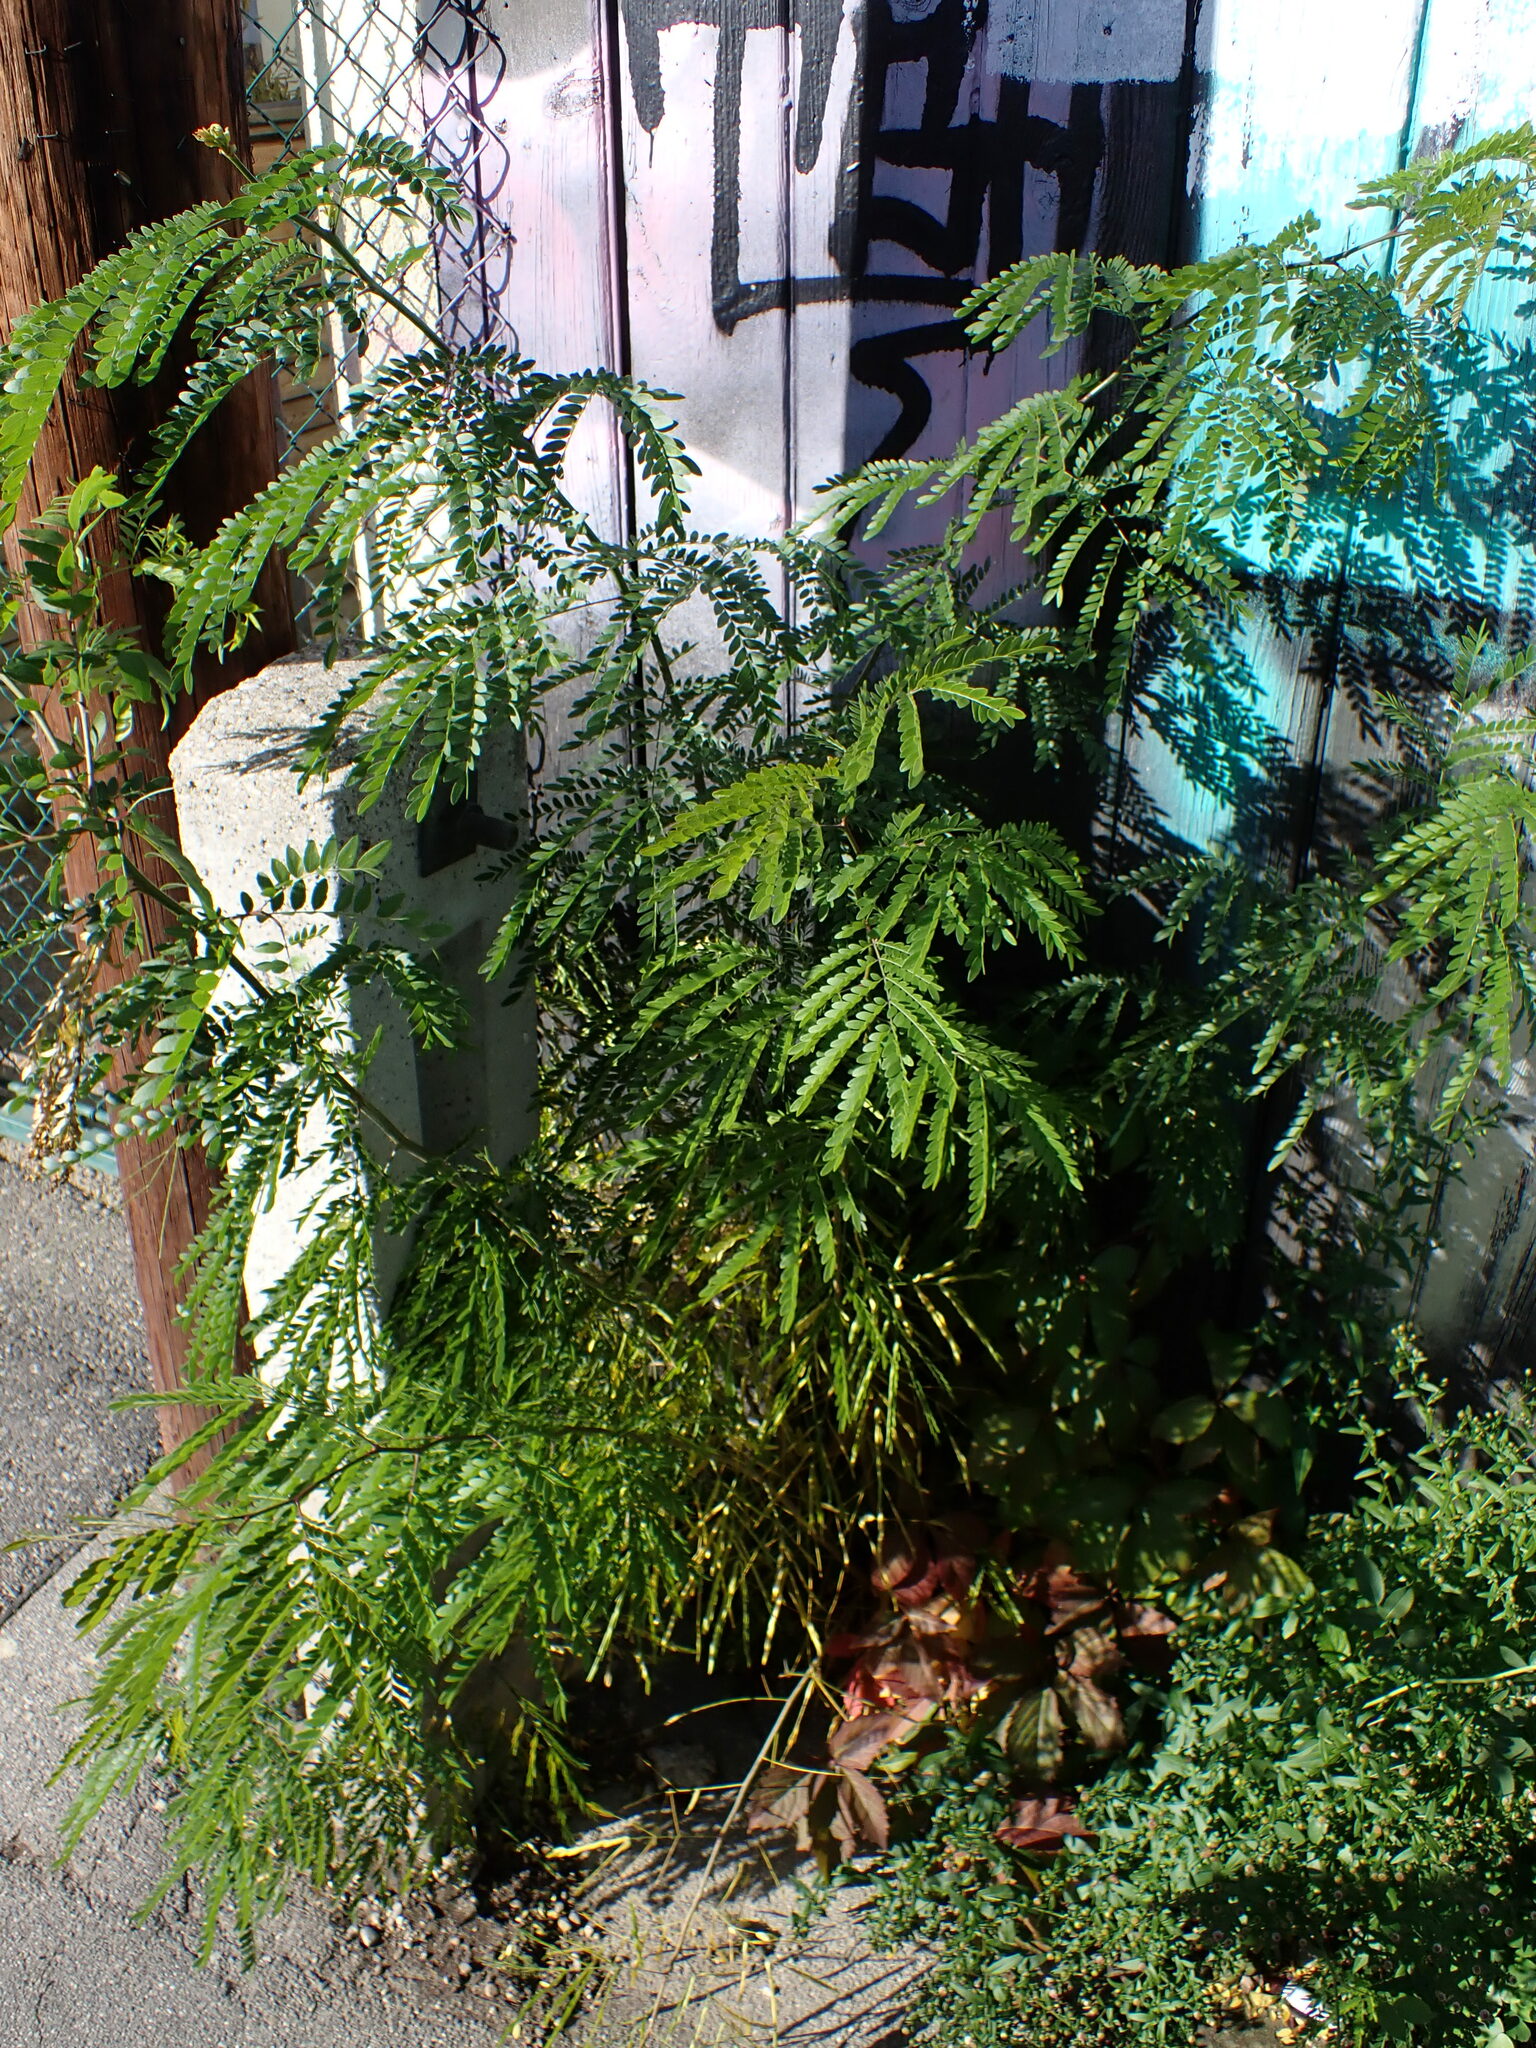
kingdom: Plantae
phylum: Tracheophyta
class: Magnoliopsida
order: Fabales
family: Fabaceae
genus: Gleditsia
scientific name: Gleditsia triacanthos
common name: Common honeylocust
